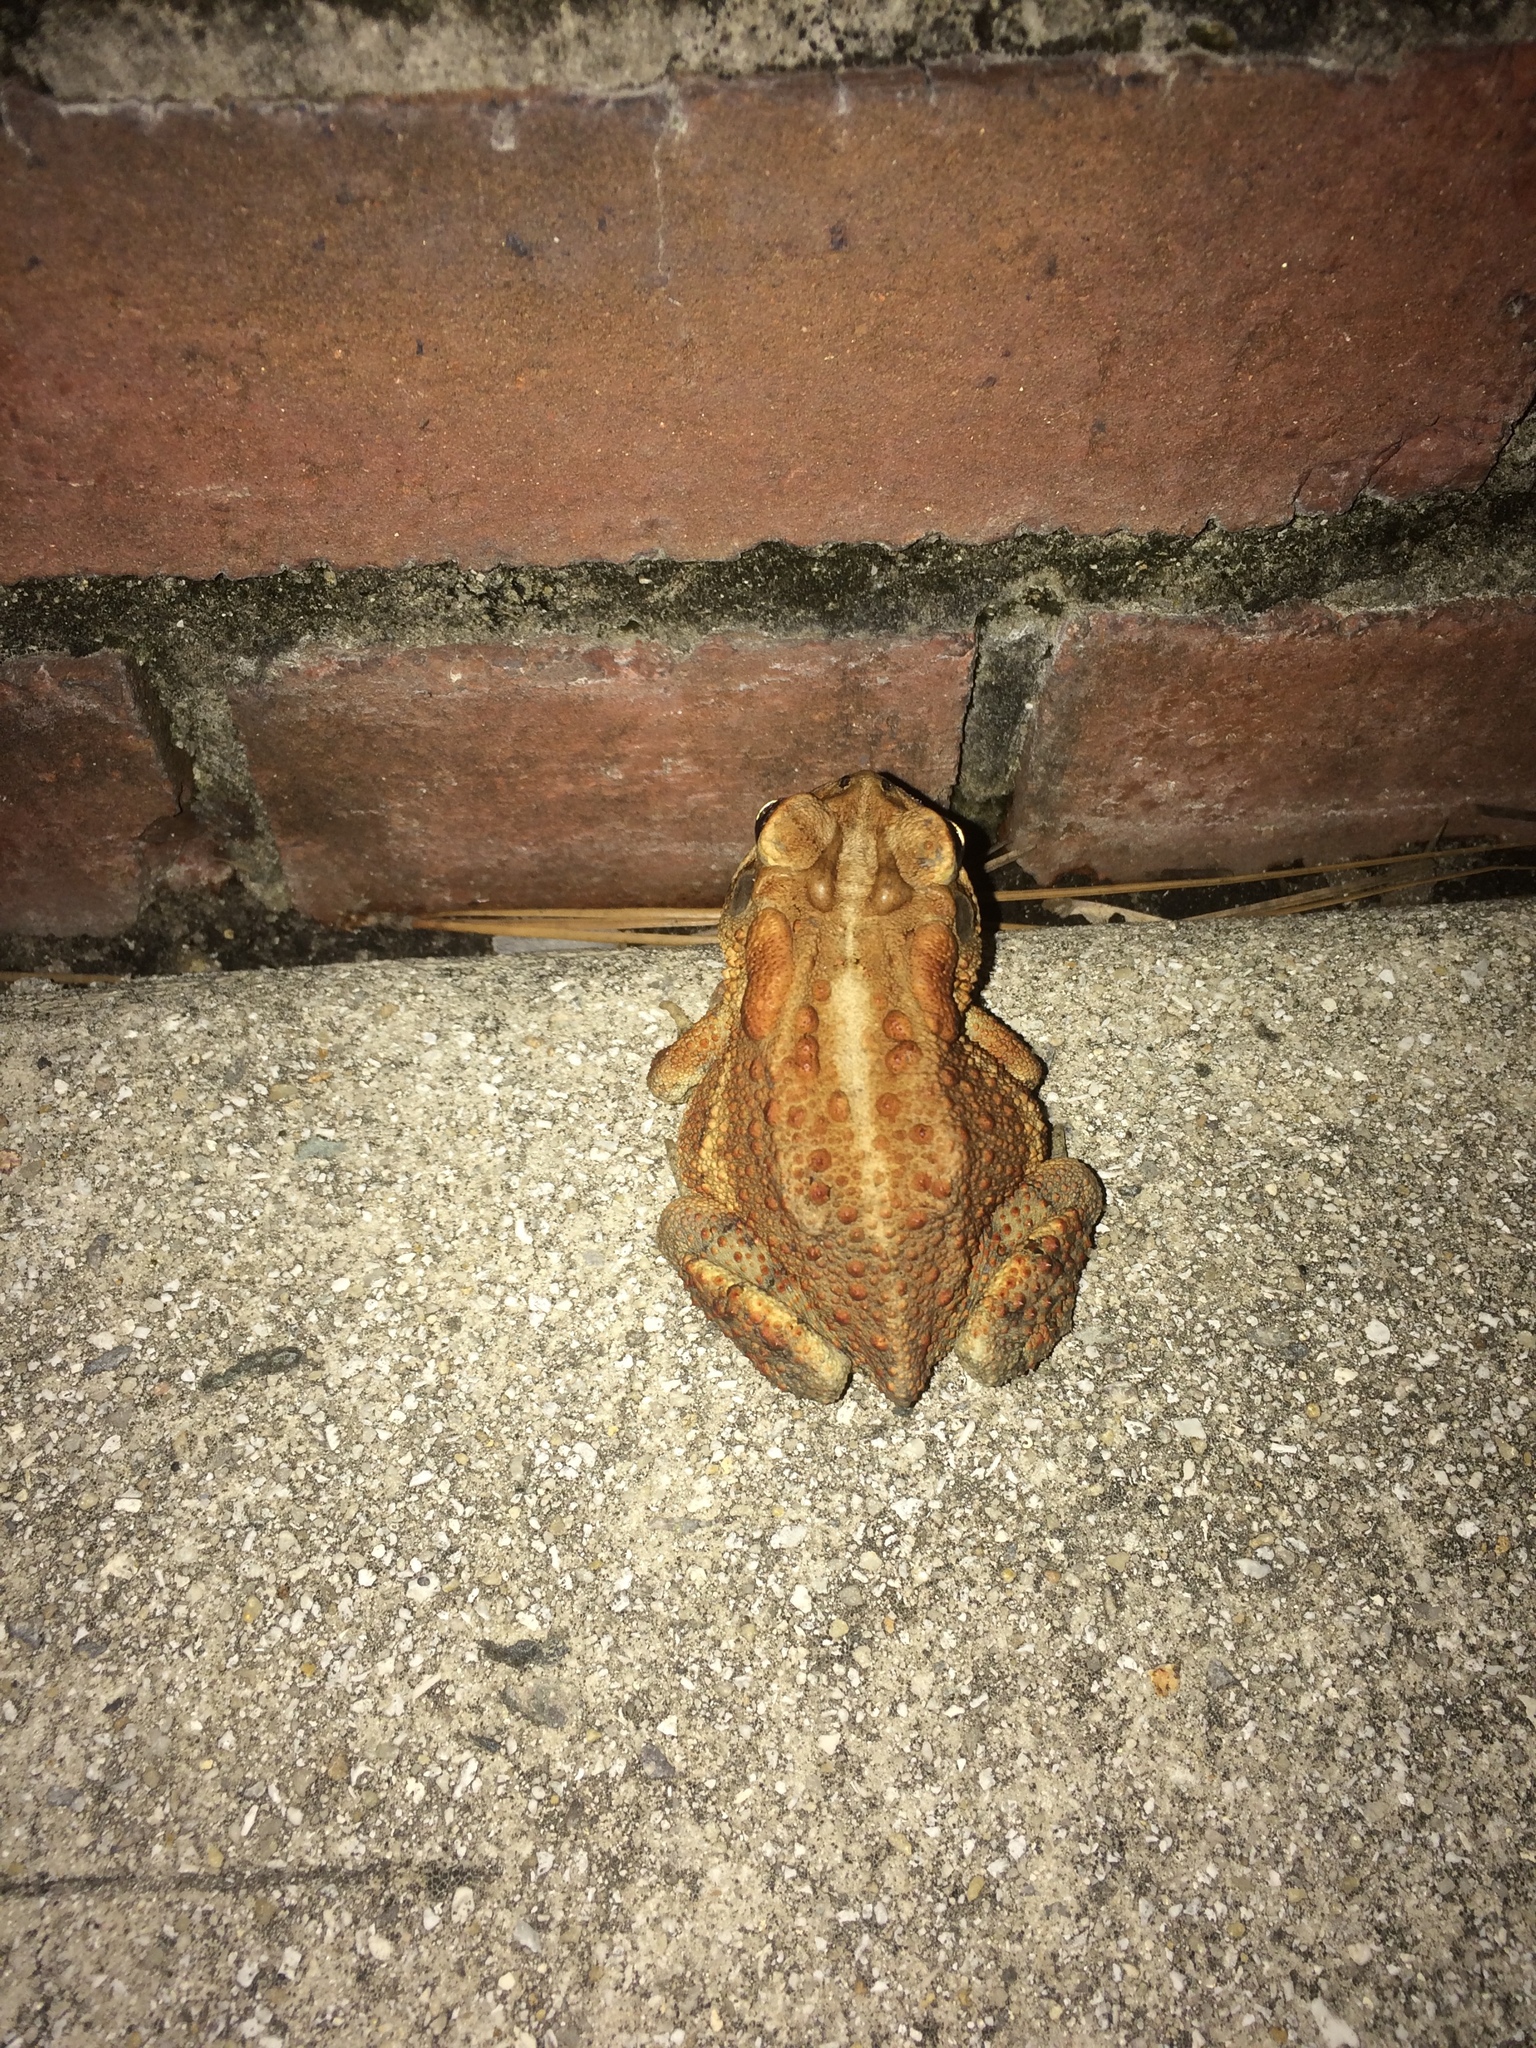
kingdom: Animalia
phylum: Chordata
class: Amphibia
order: Anura
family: Bufonidae
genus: Anaxyrus
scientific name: Anaxyrus terrestris
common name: Southern toad
